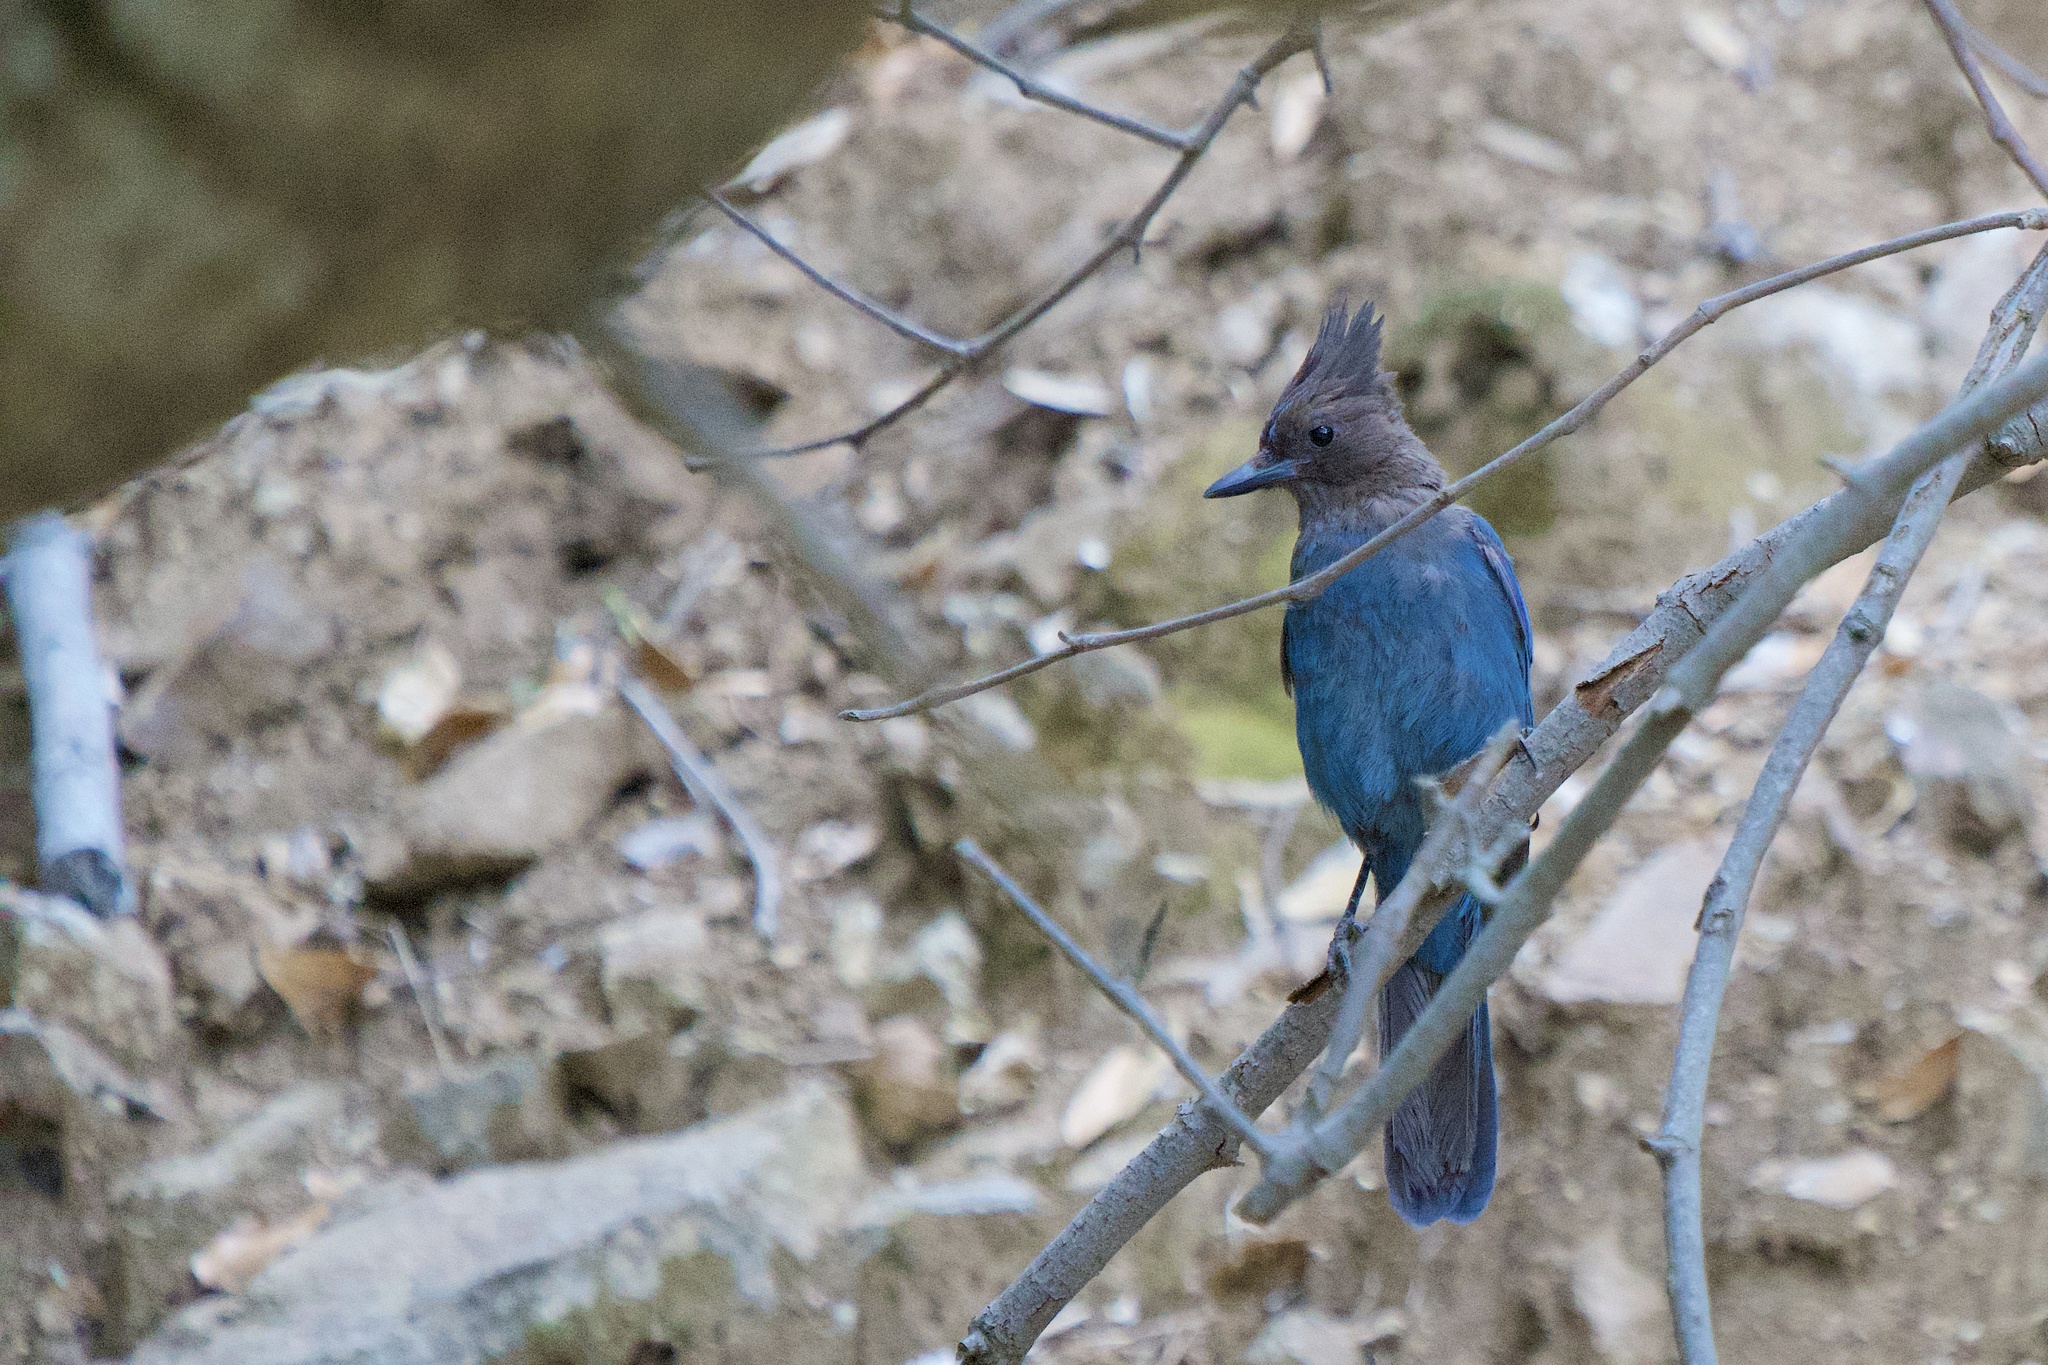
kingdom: Animalia
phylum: Chordata
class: Aves
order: Passeriformes
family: Corvidae
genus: Cyanocitta
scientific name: Cyanocitta stelleri
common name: Steller's jay
